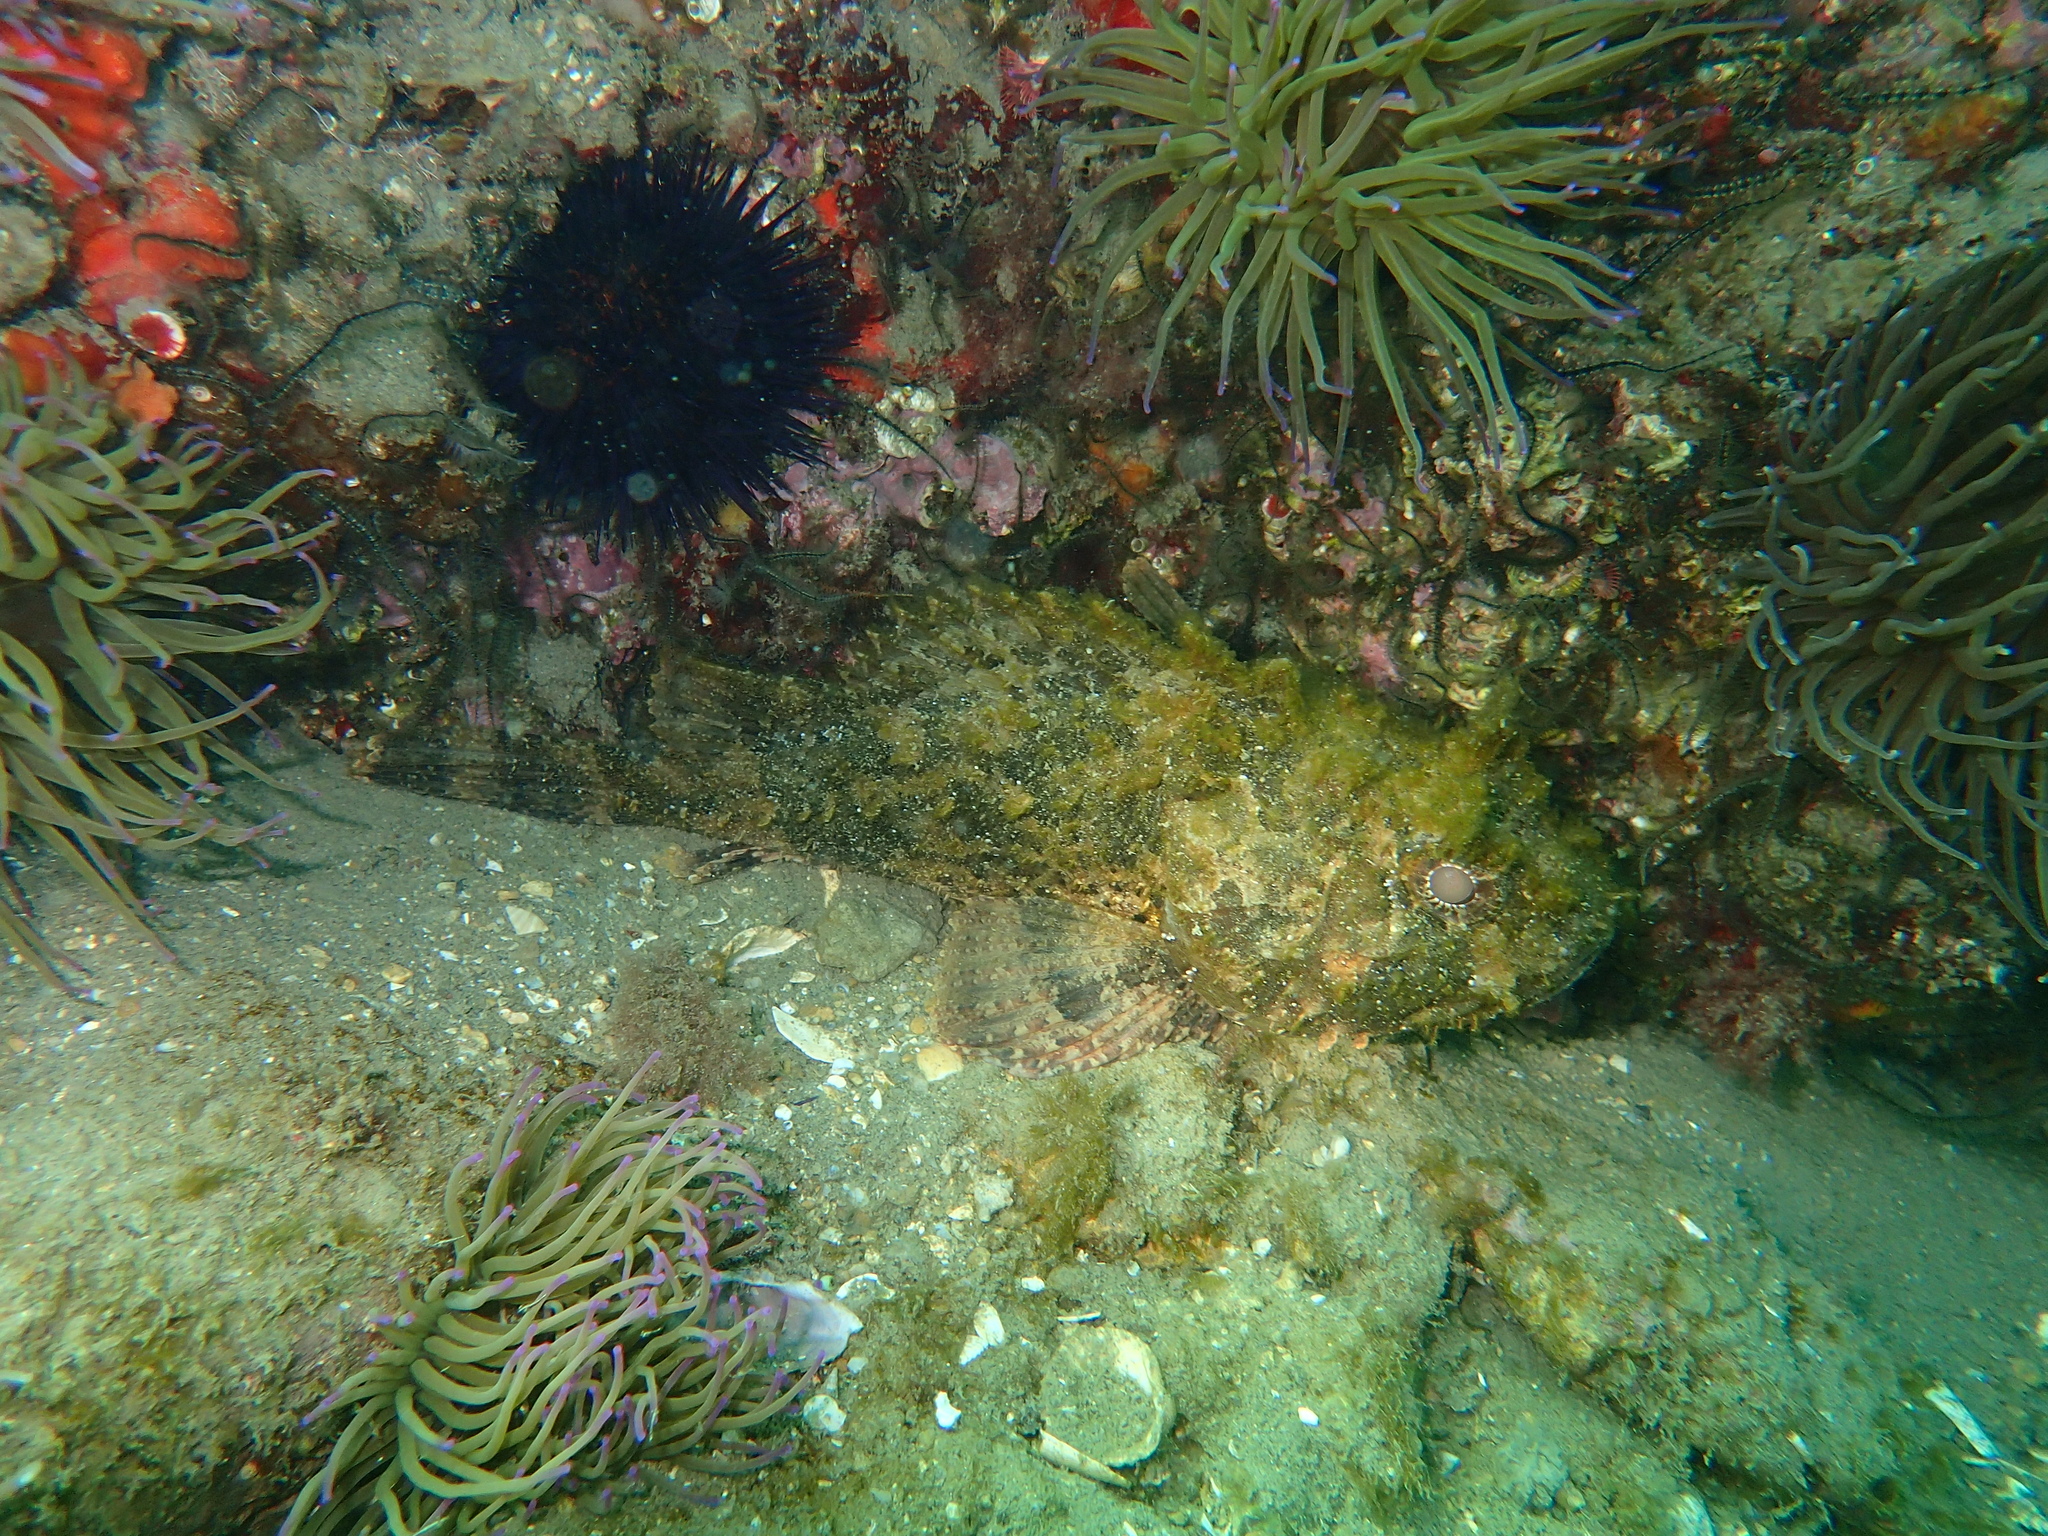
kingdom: Animalia
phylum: Chordata
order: Scorpaeniformes
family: Scorpaenidae
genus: Scorpaena
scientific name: Scorpaena porcus
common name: Black scorpionfish
